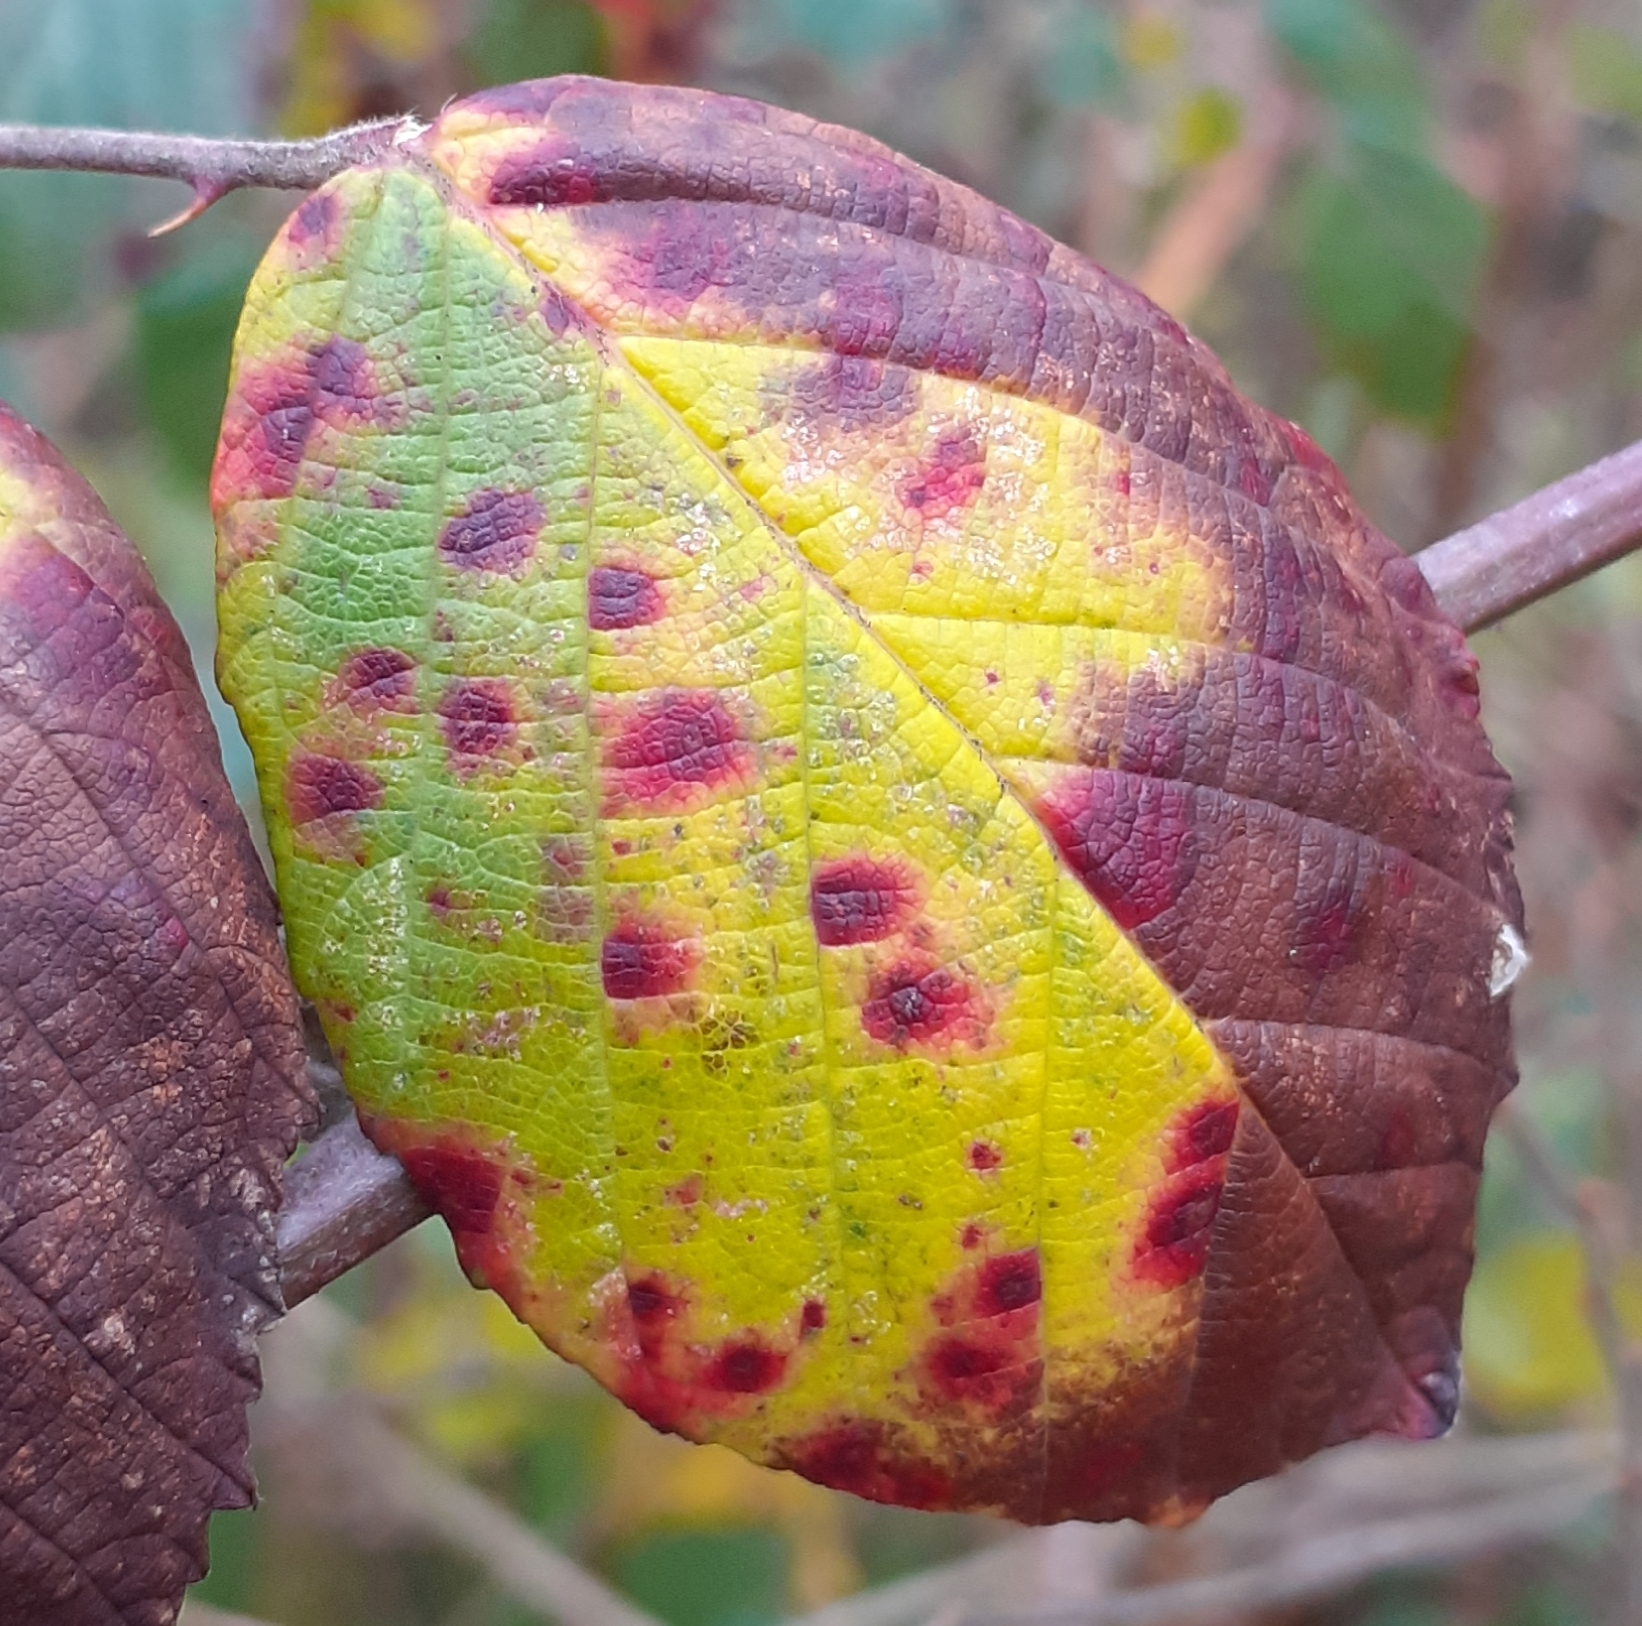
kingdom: Fungi
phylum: Basidiomycota
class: Pucciniomycetes
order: Pucciniales
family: Phragmidiaceae
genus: Phragmidium
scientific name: Phragmidium violaceum
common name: Violet bramble rust
